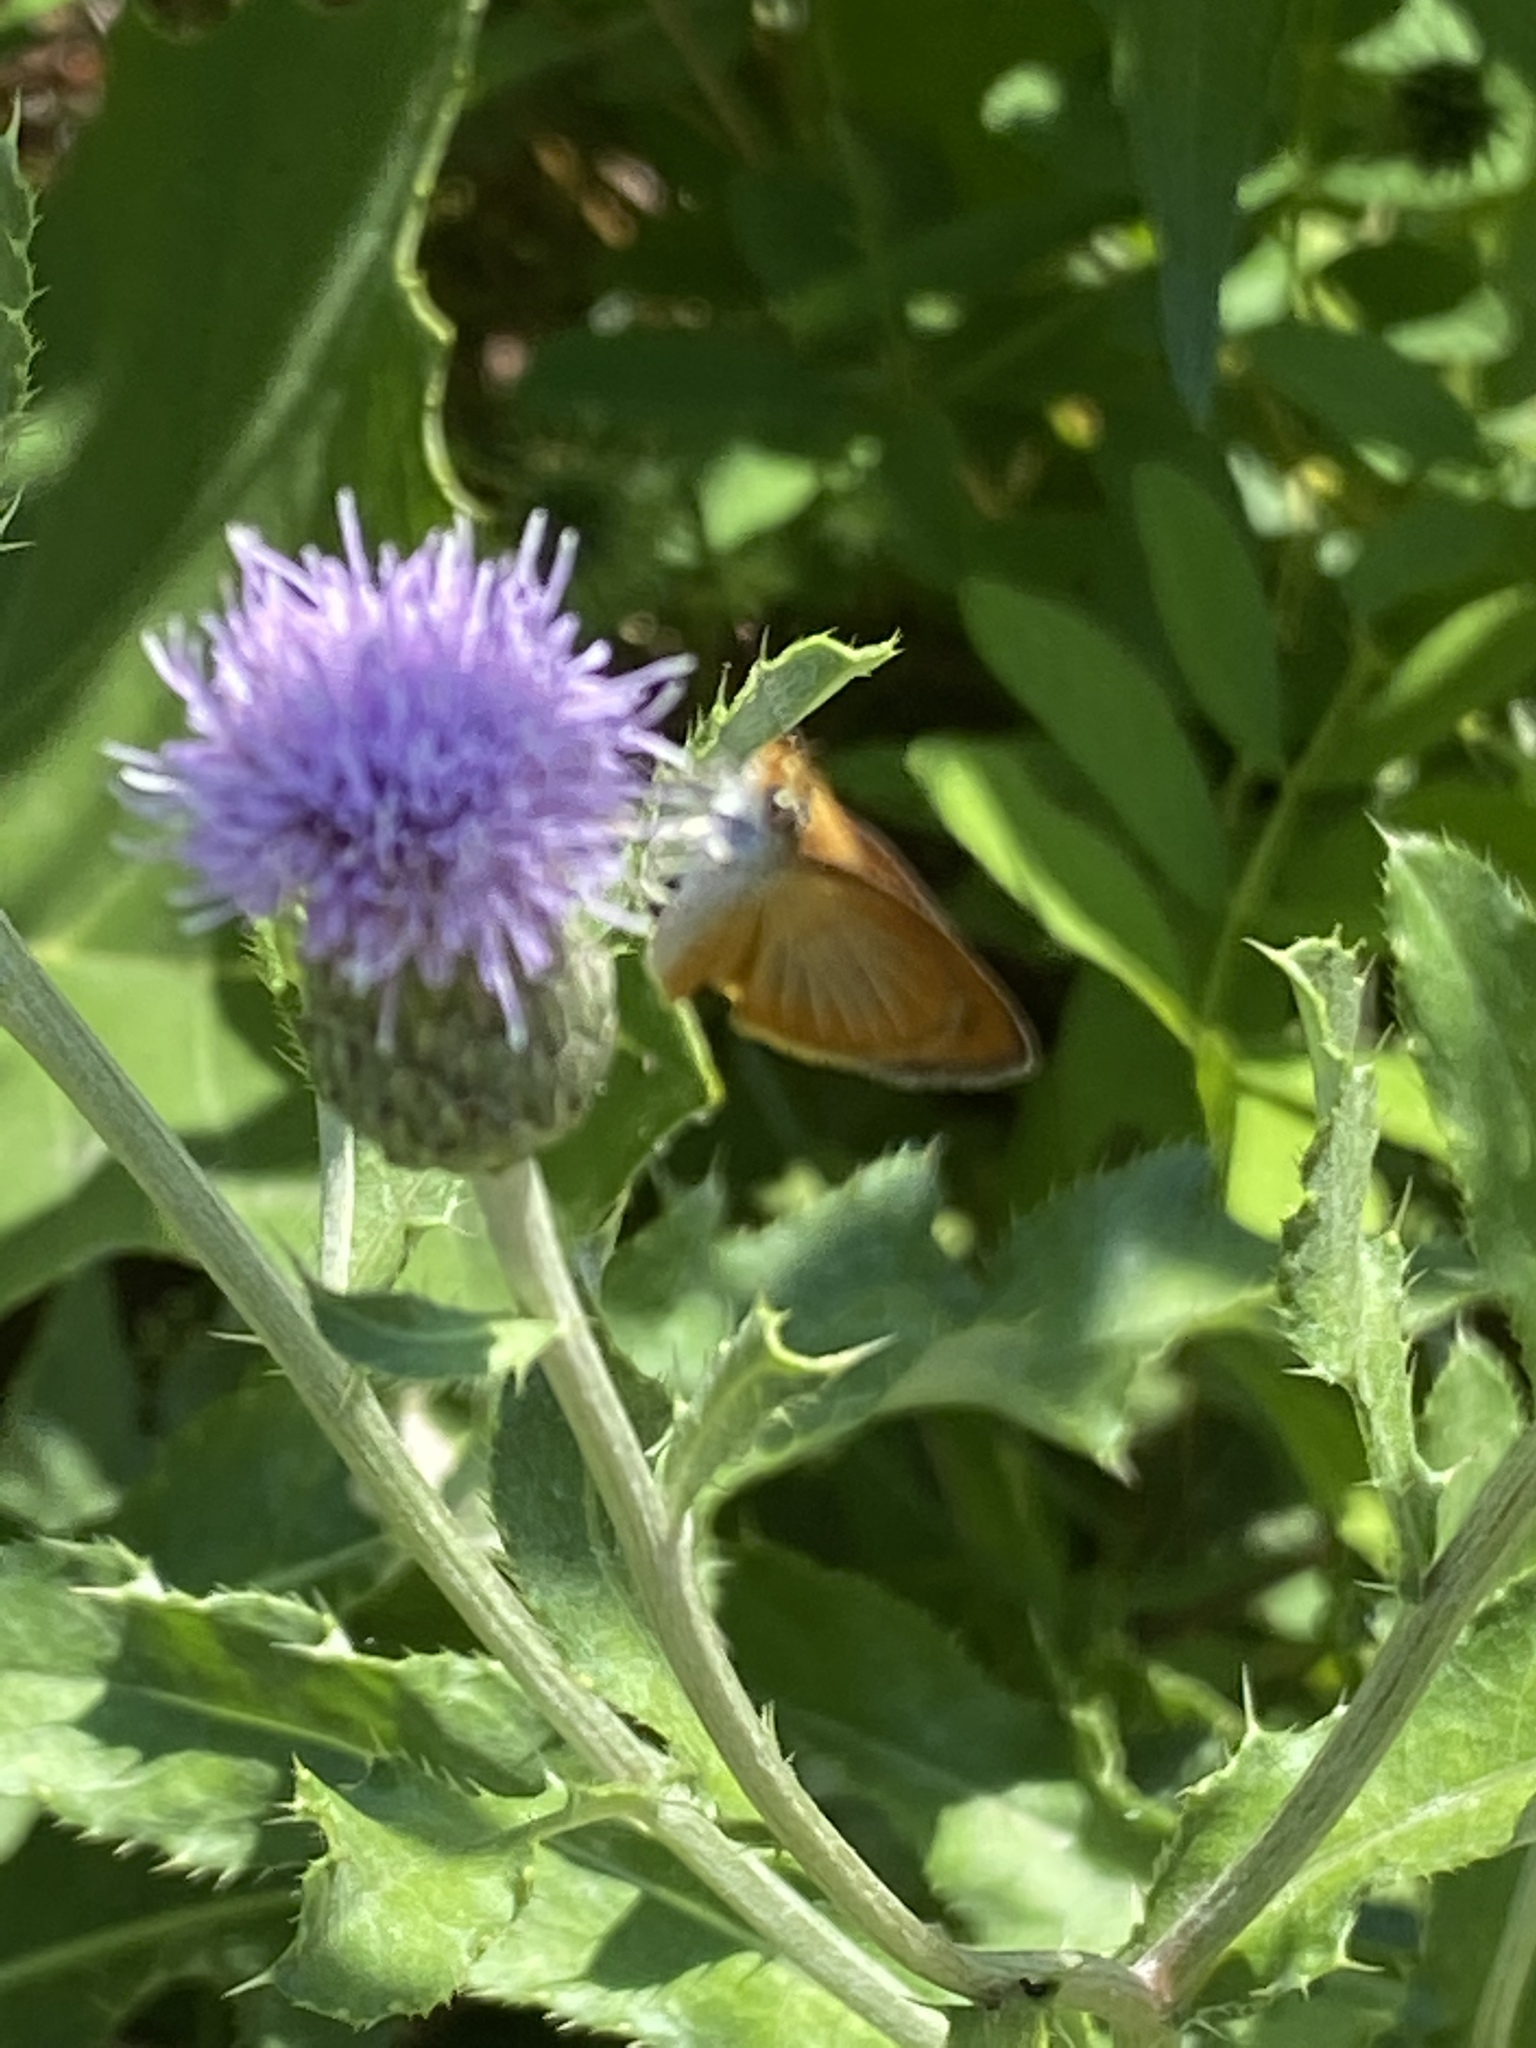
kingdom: Animalia
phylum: Arthropoda
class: Insecta
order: Lepidoptera
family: Hesperiidae
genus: Ancyloxypha
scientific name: Ancyloxypha numitor
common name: Least skipper
